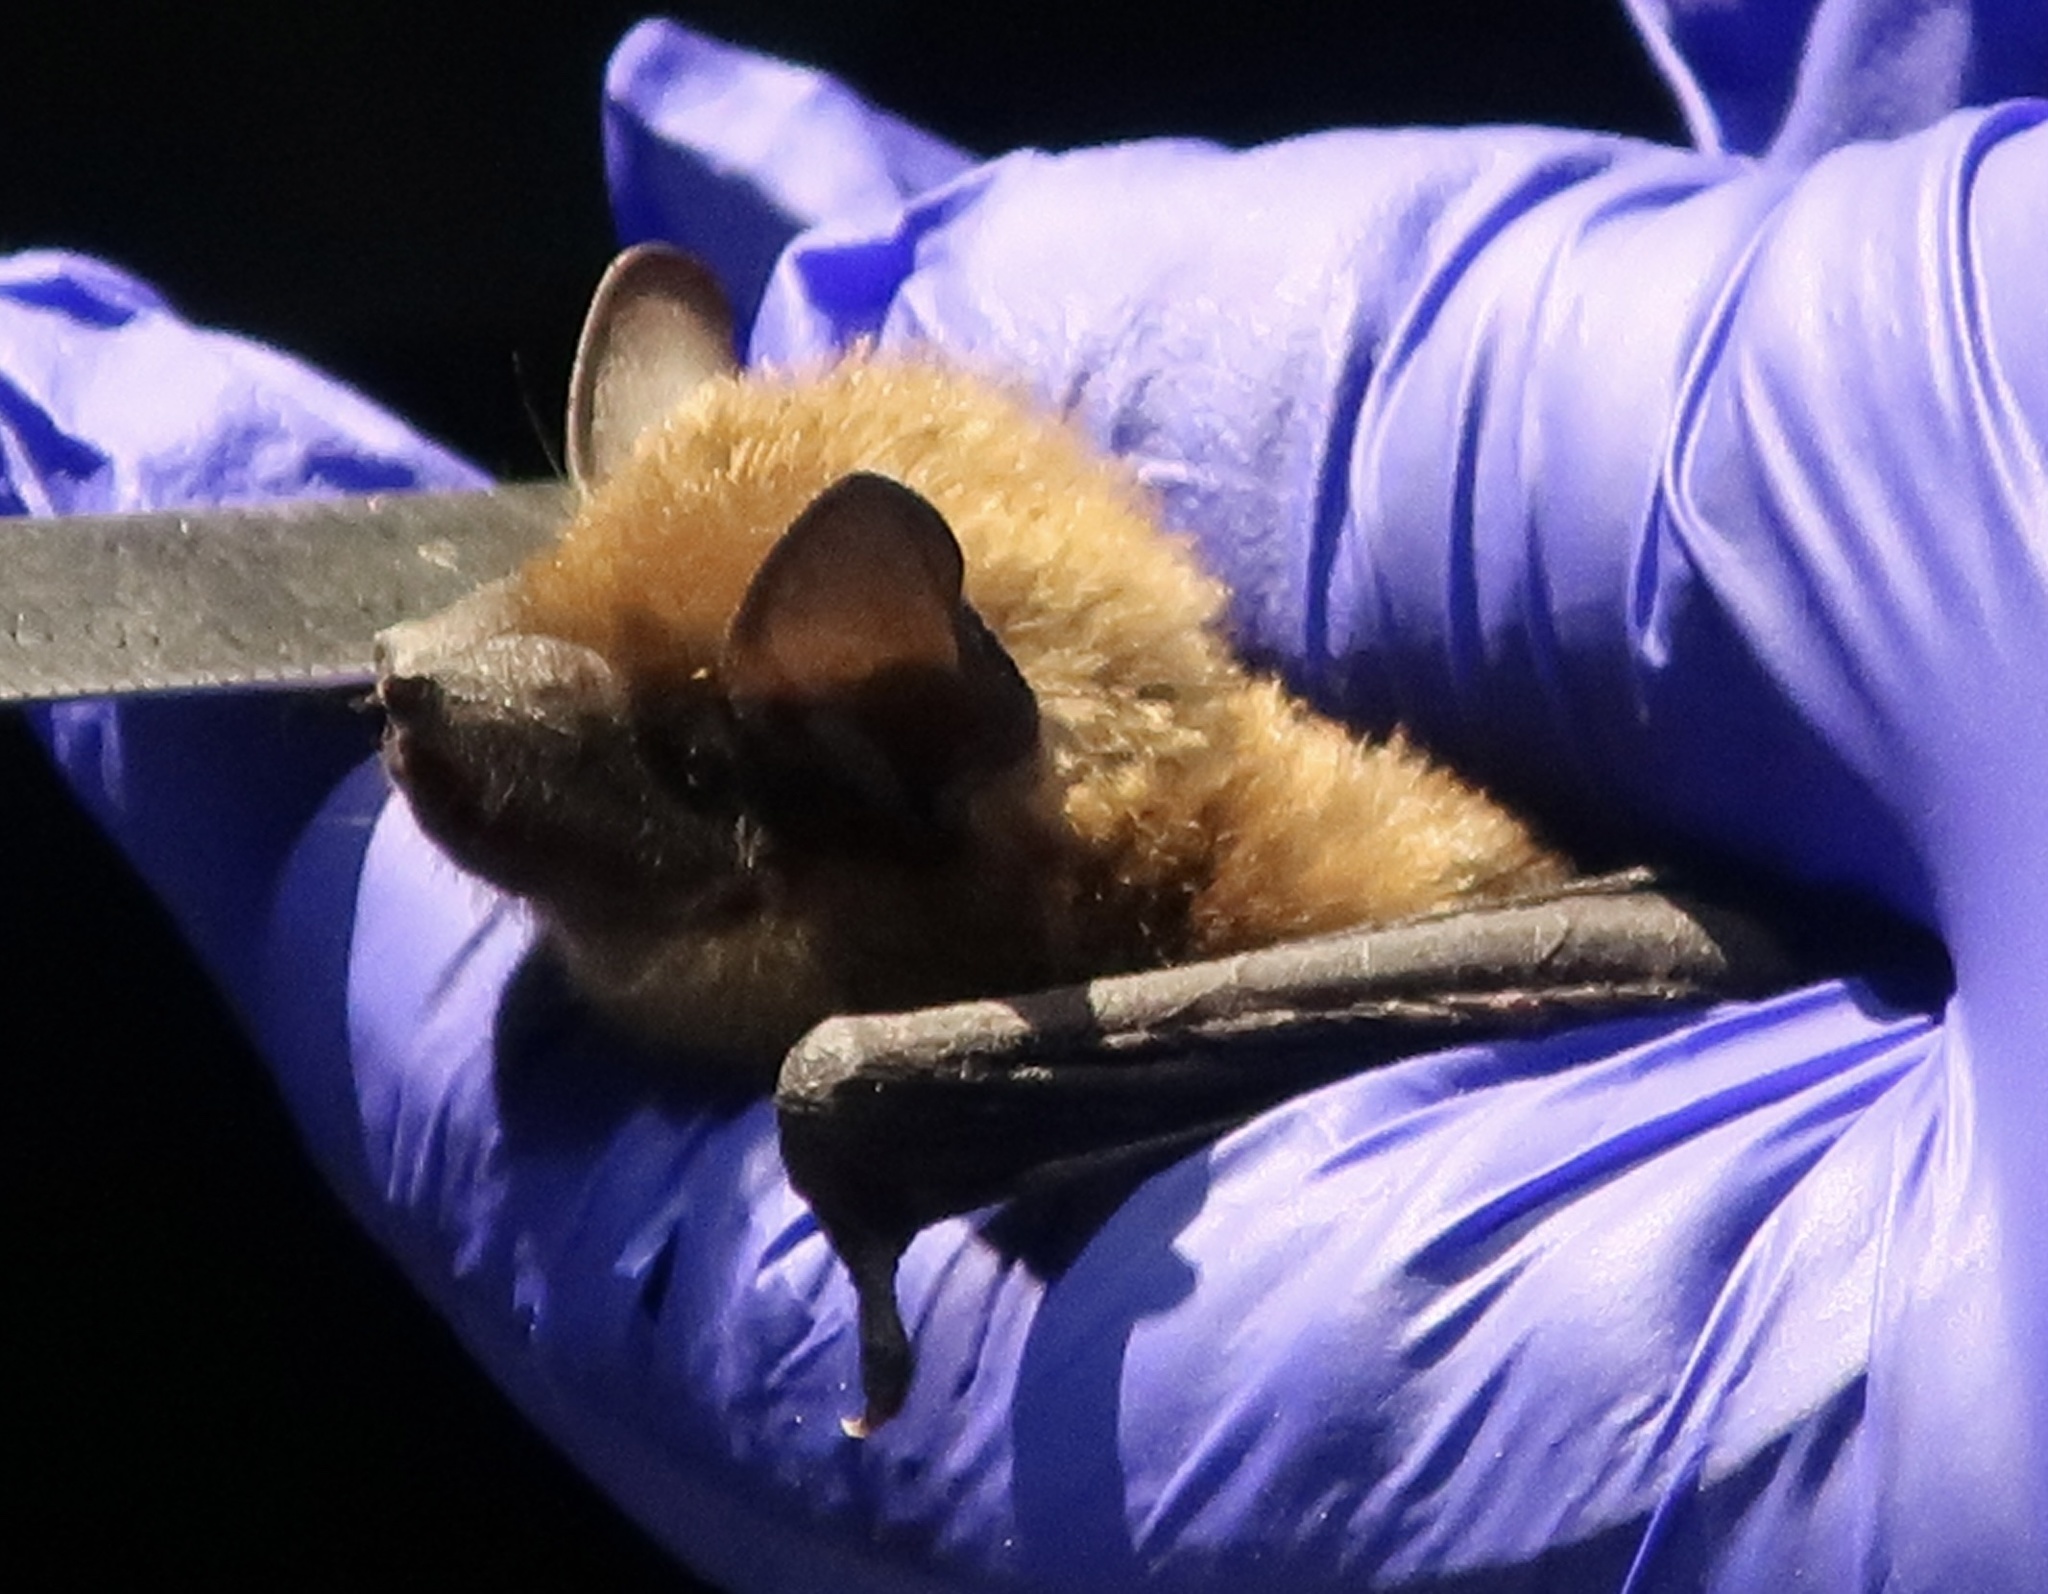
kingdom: Animalia
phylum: Chordata
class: Mammalia
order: Chiroptera
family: Vespertilionidae
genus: Eptesicus
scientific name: Eptesicus fuscus
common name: Big brown bat
